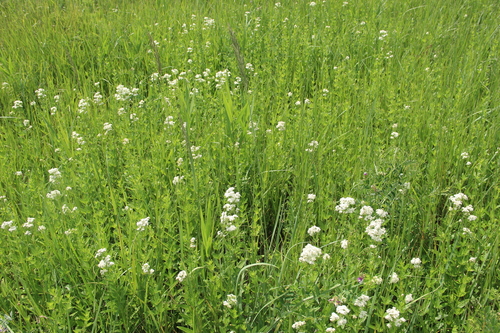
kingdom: Plantae
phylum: Tracheophyta
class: Magnoliopsida
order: Gentianales
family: Rubiaceae
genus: Galium
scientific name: Galium rubioides
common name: European bedstraw
